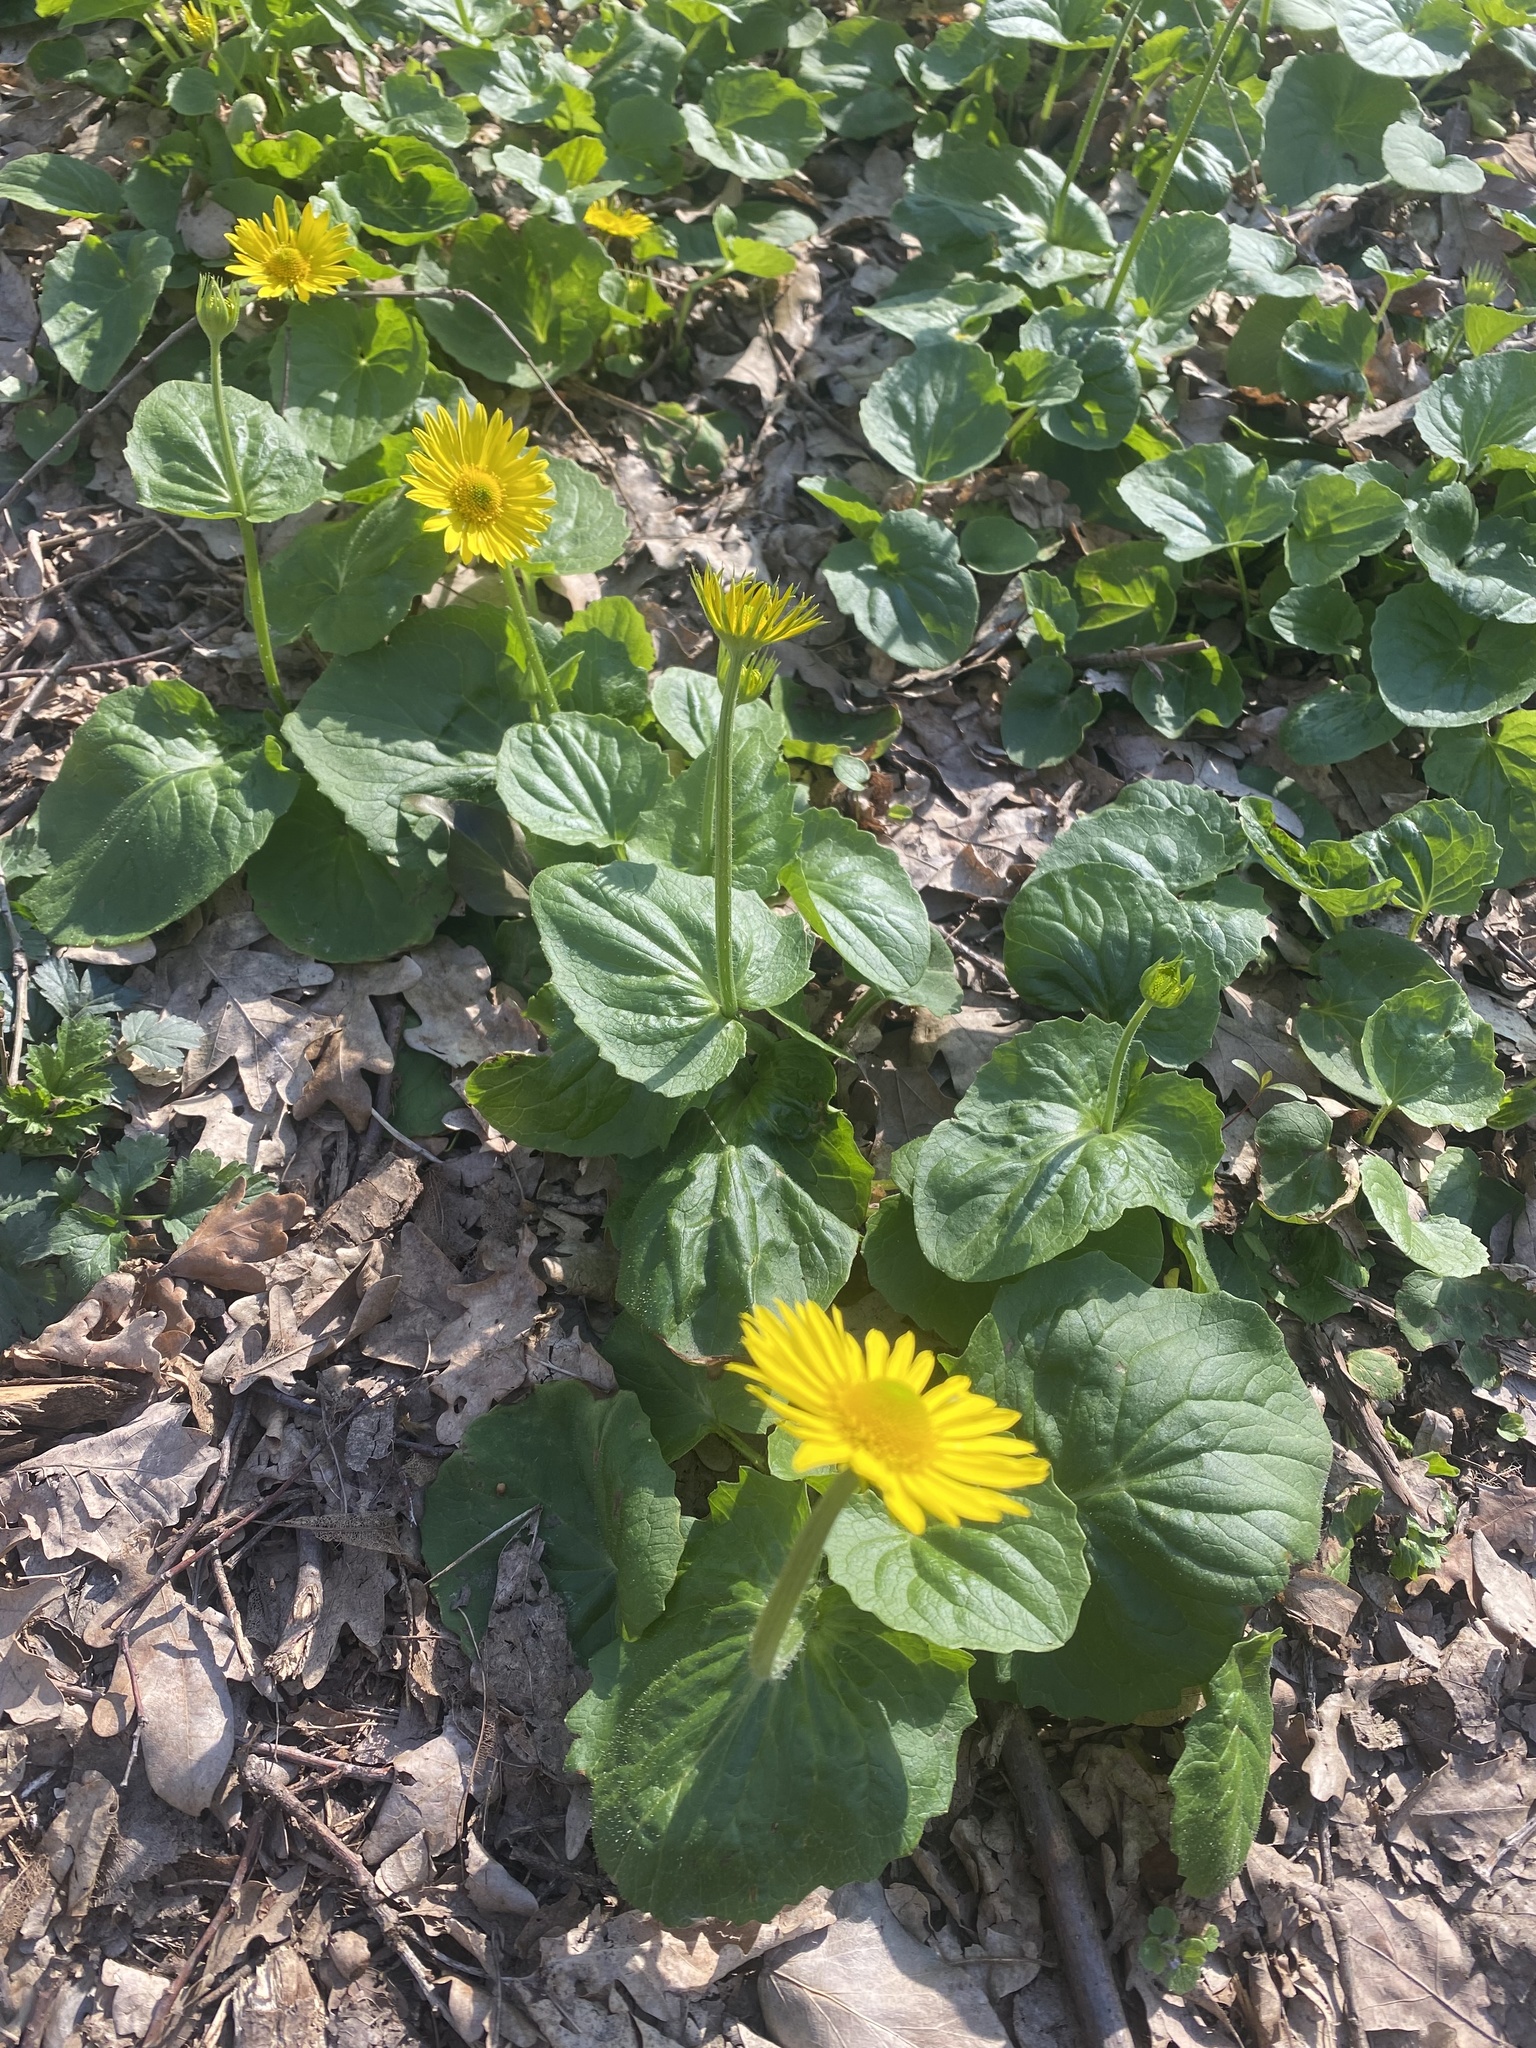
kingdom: Plantae
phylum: Tracheophyta
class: Magnoliopsida
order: Asterales
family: Asteraceae
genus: Doronicum
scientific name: Doronicum
